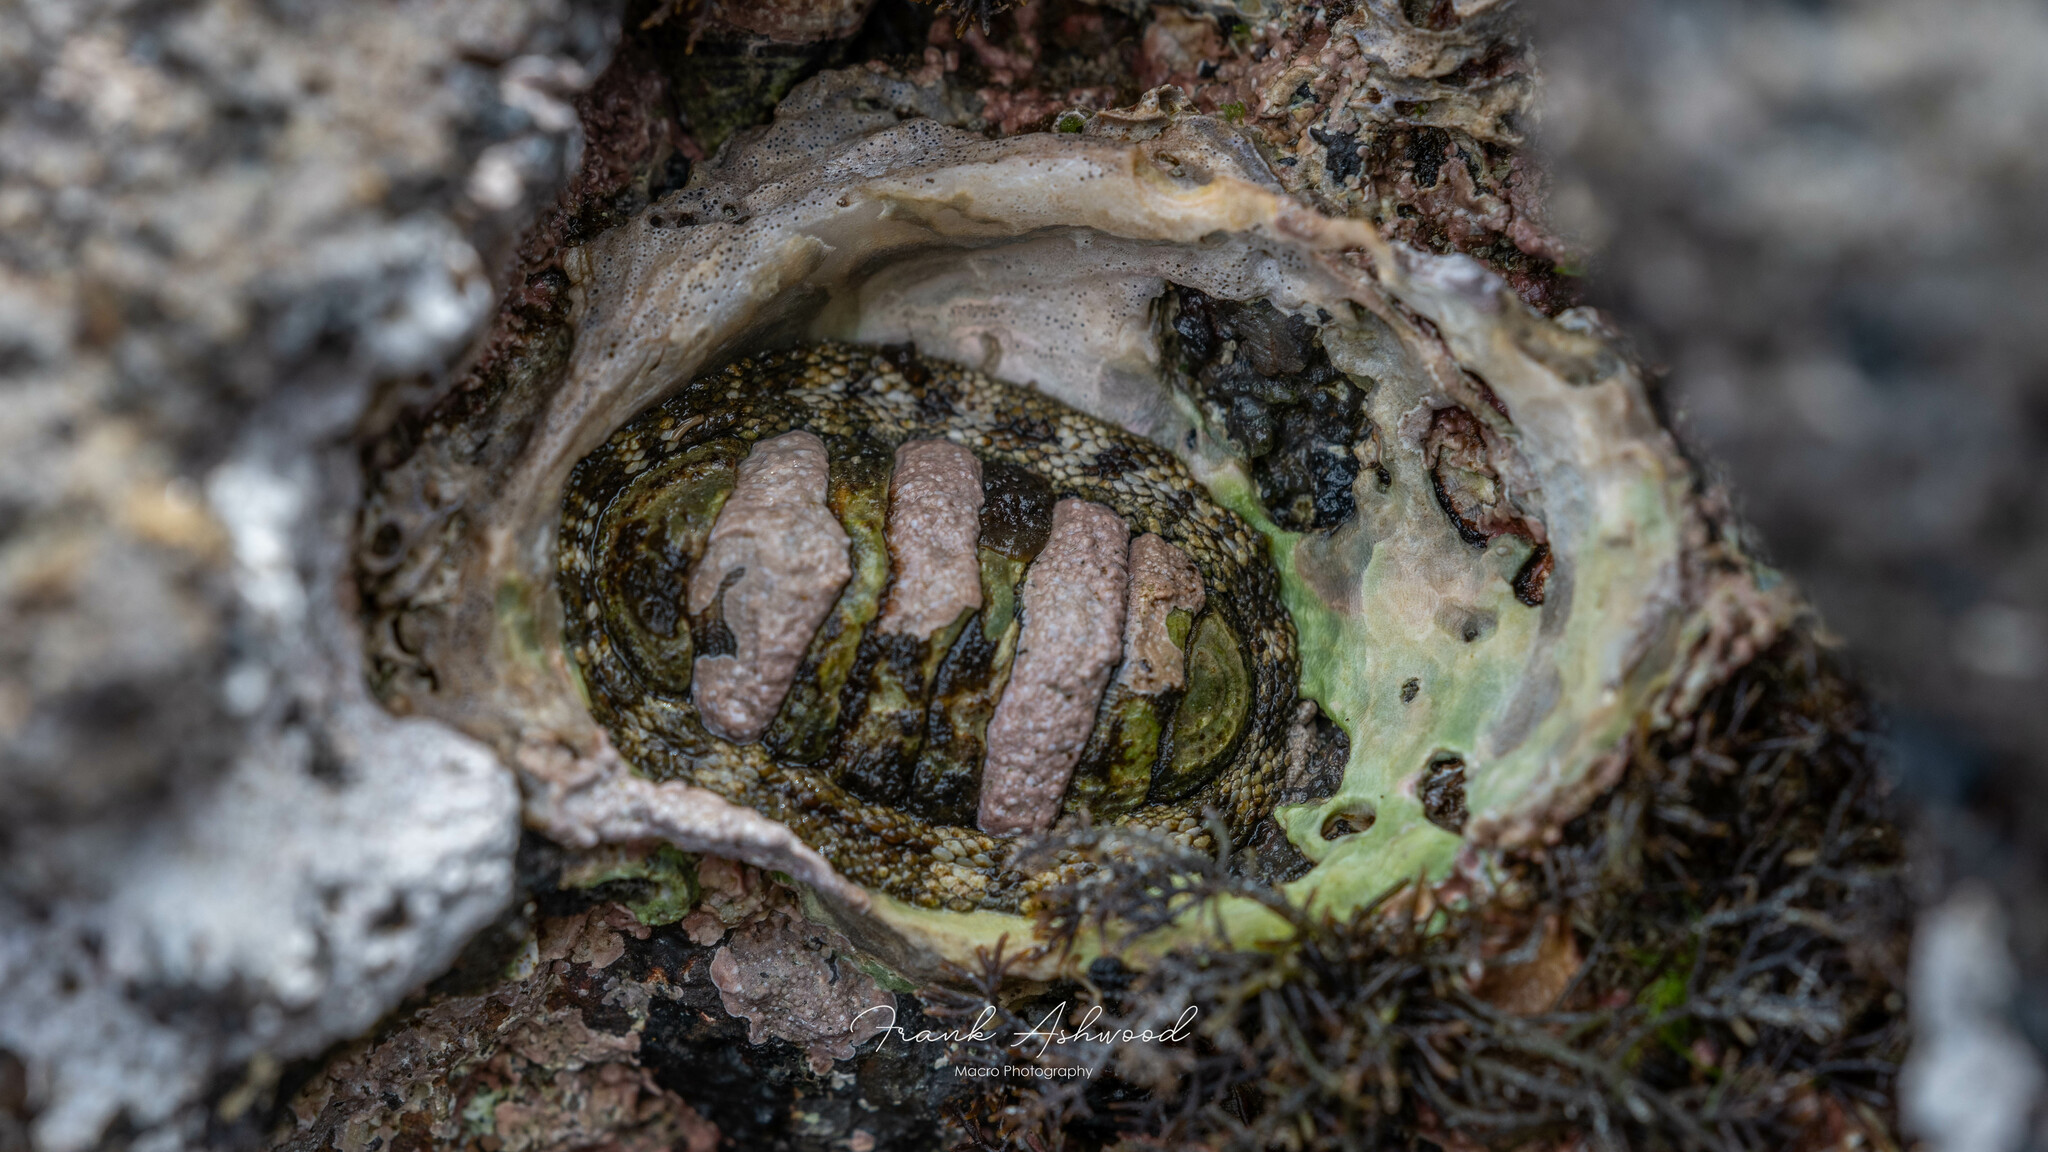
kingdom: Animalia
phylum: Mollusca
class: Polyplacophora
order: Chitonida
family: Chitonidae
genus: Sypharochiton
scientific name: Sypharochiton pelliserpentis
